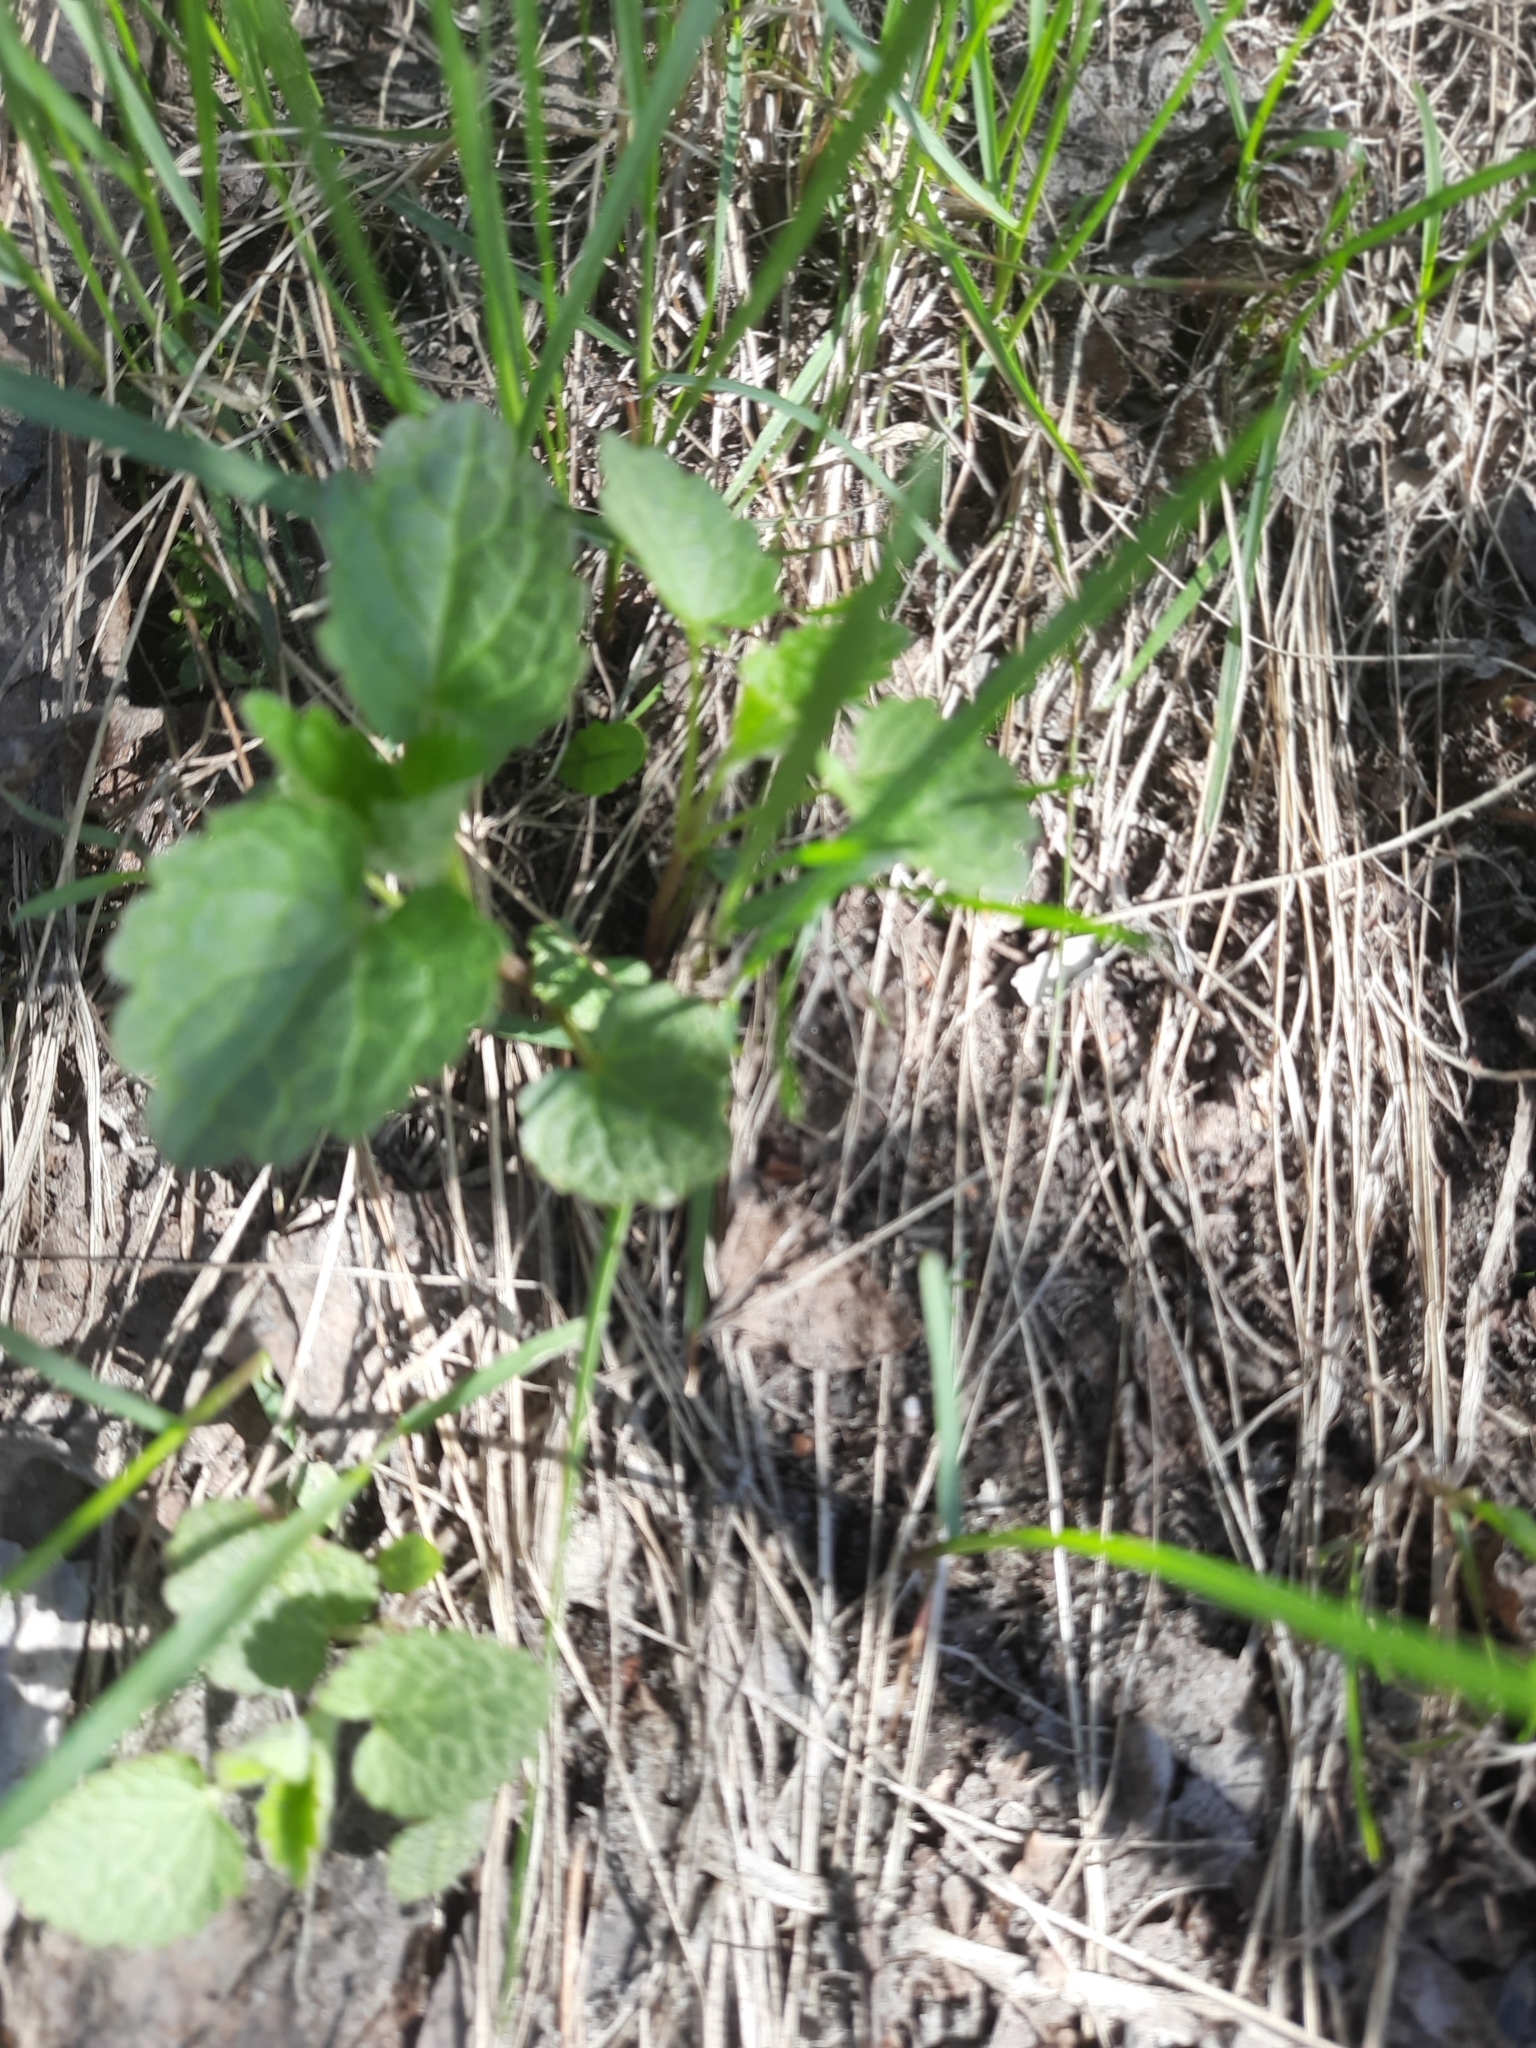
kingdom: Plantae
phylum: Tracheophyta
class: Magnoliopsida
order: Lamiales
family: Lamiaceae
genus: Lamium
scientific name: Lamium album
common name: White dead-nettle
